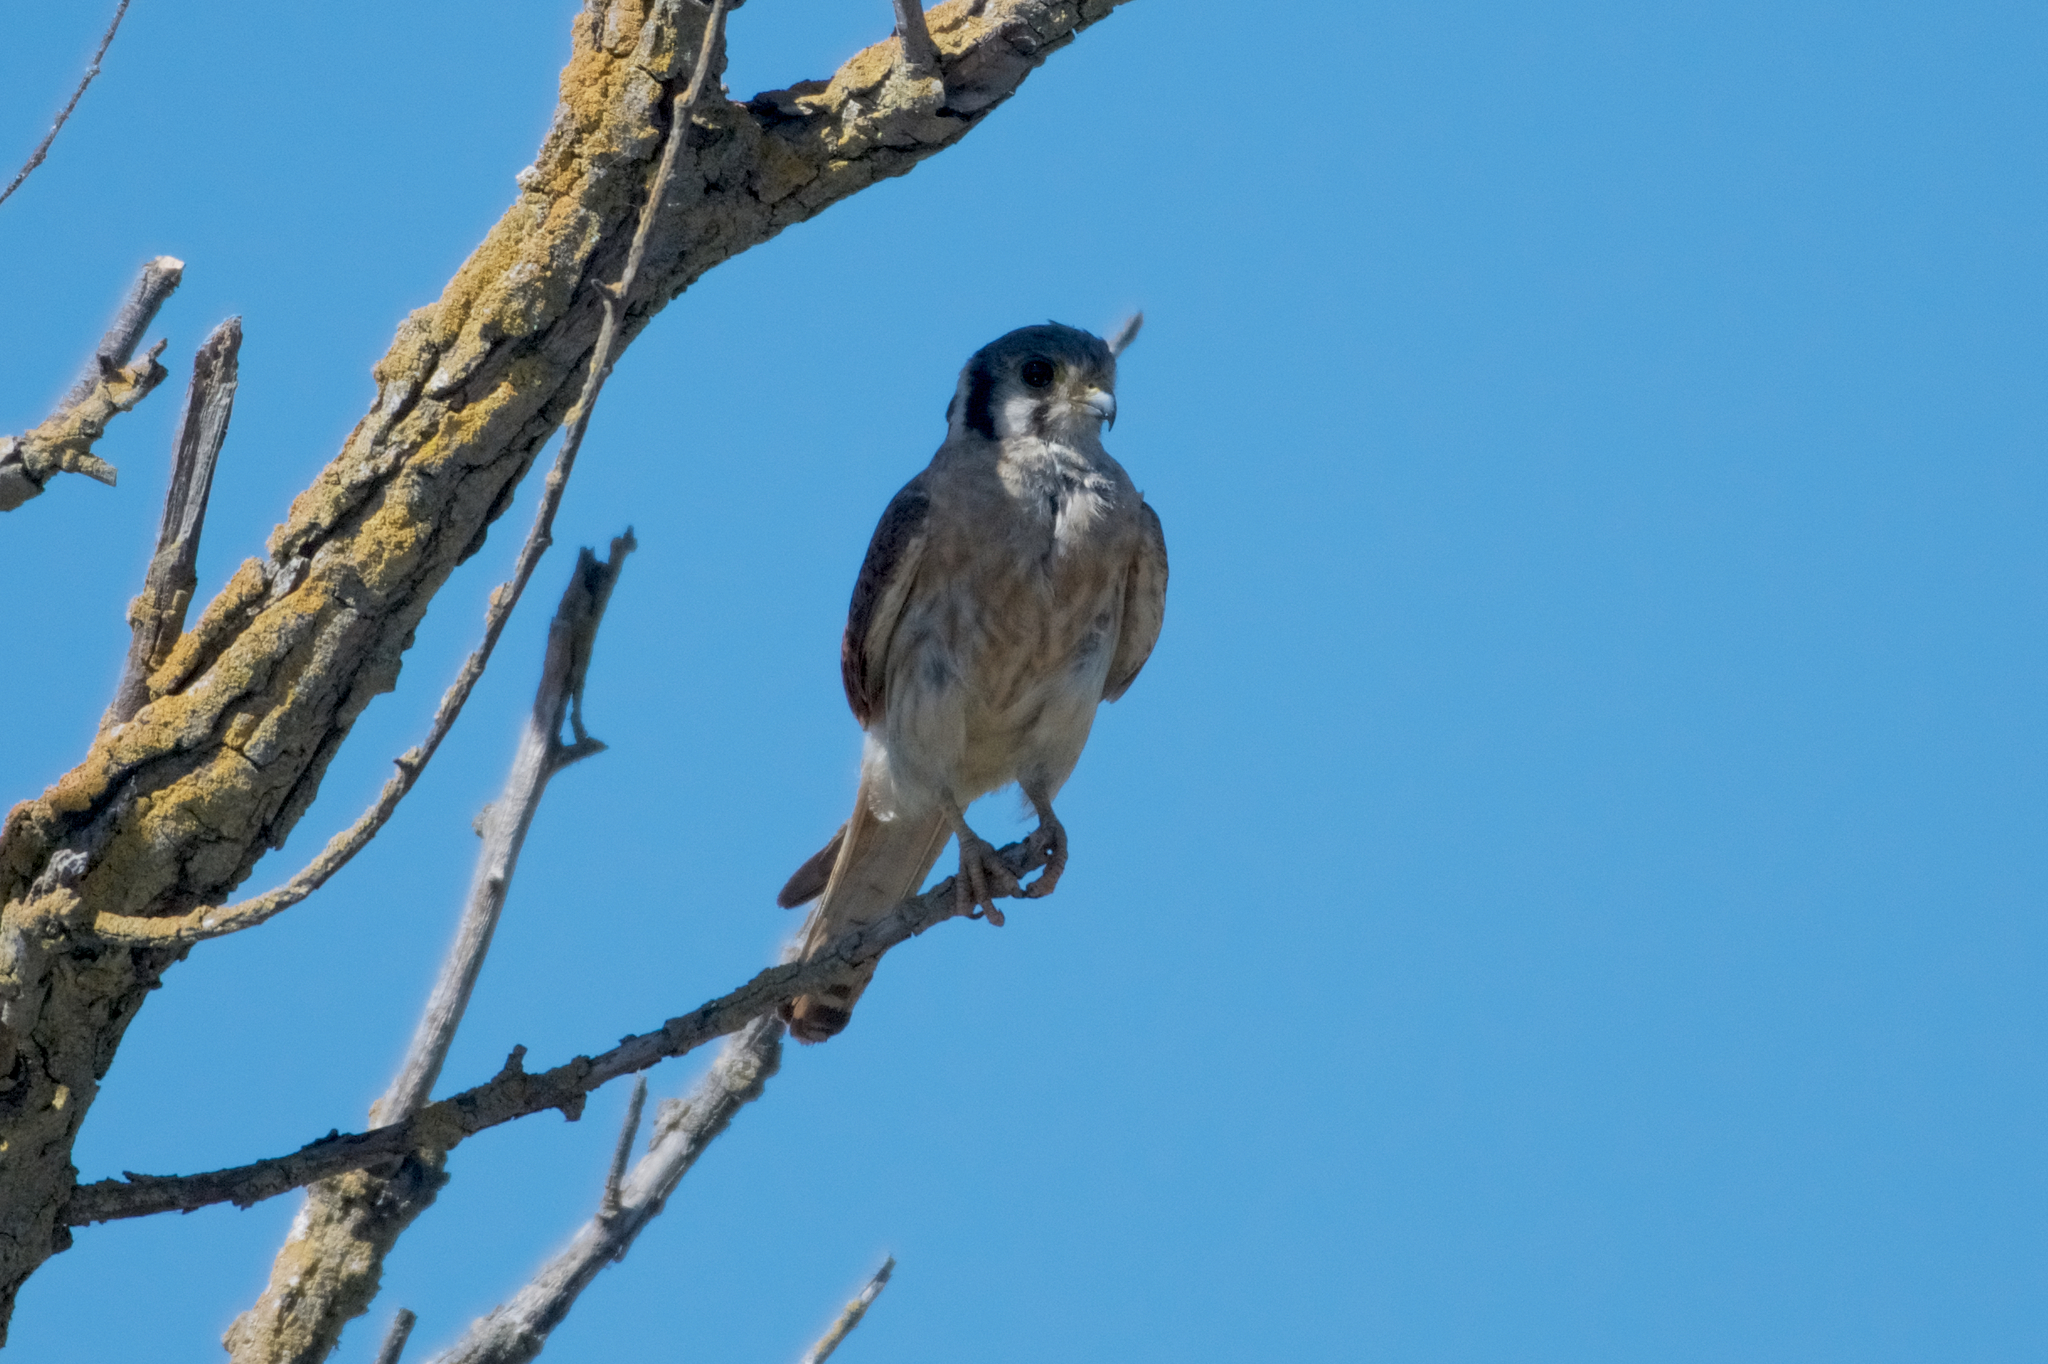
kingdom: Animalia
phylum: Chordata
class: Aves
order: Falconiformes
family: Falconidae
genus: Falco
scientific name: Falco sparverius
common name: American kestrel
